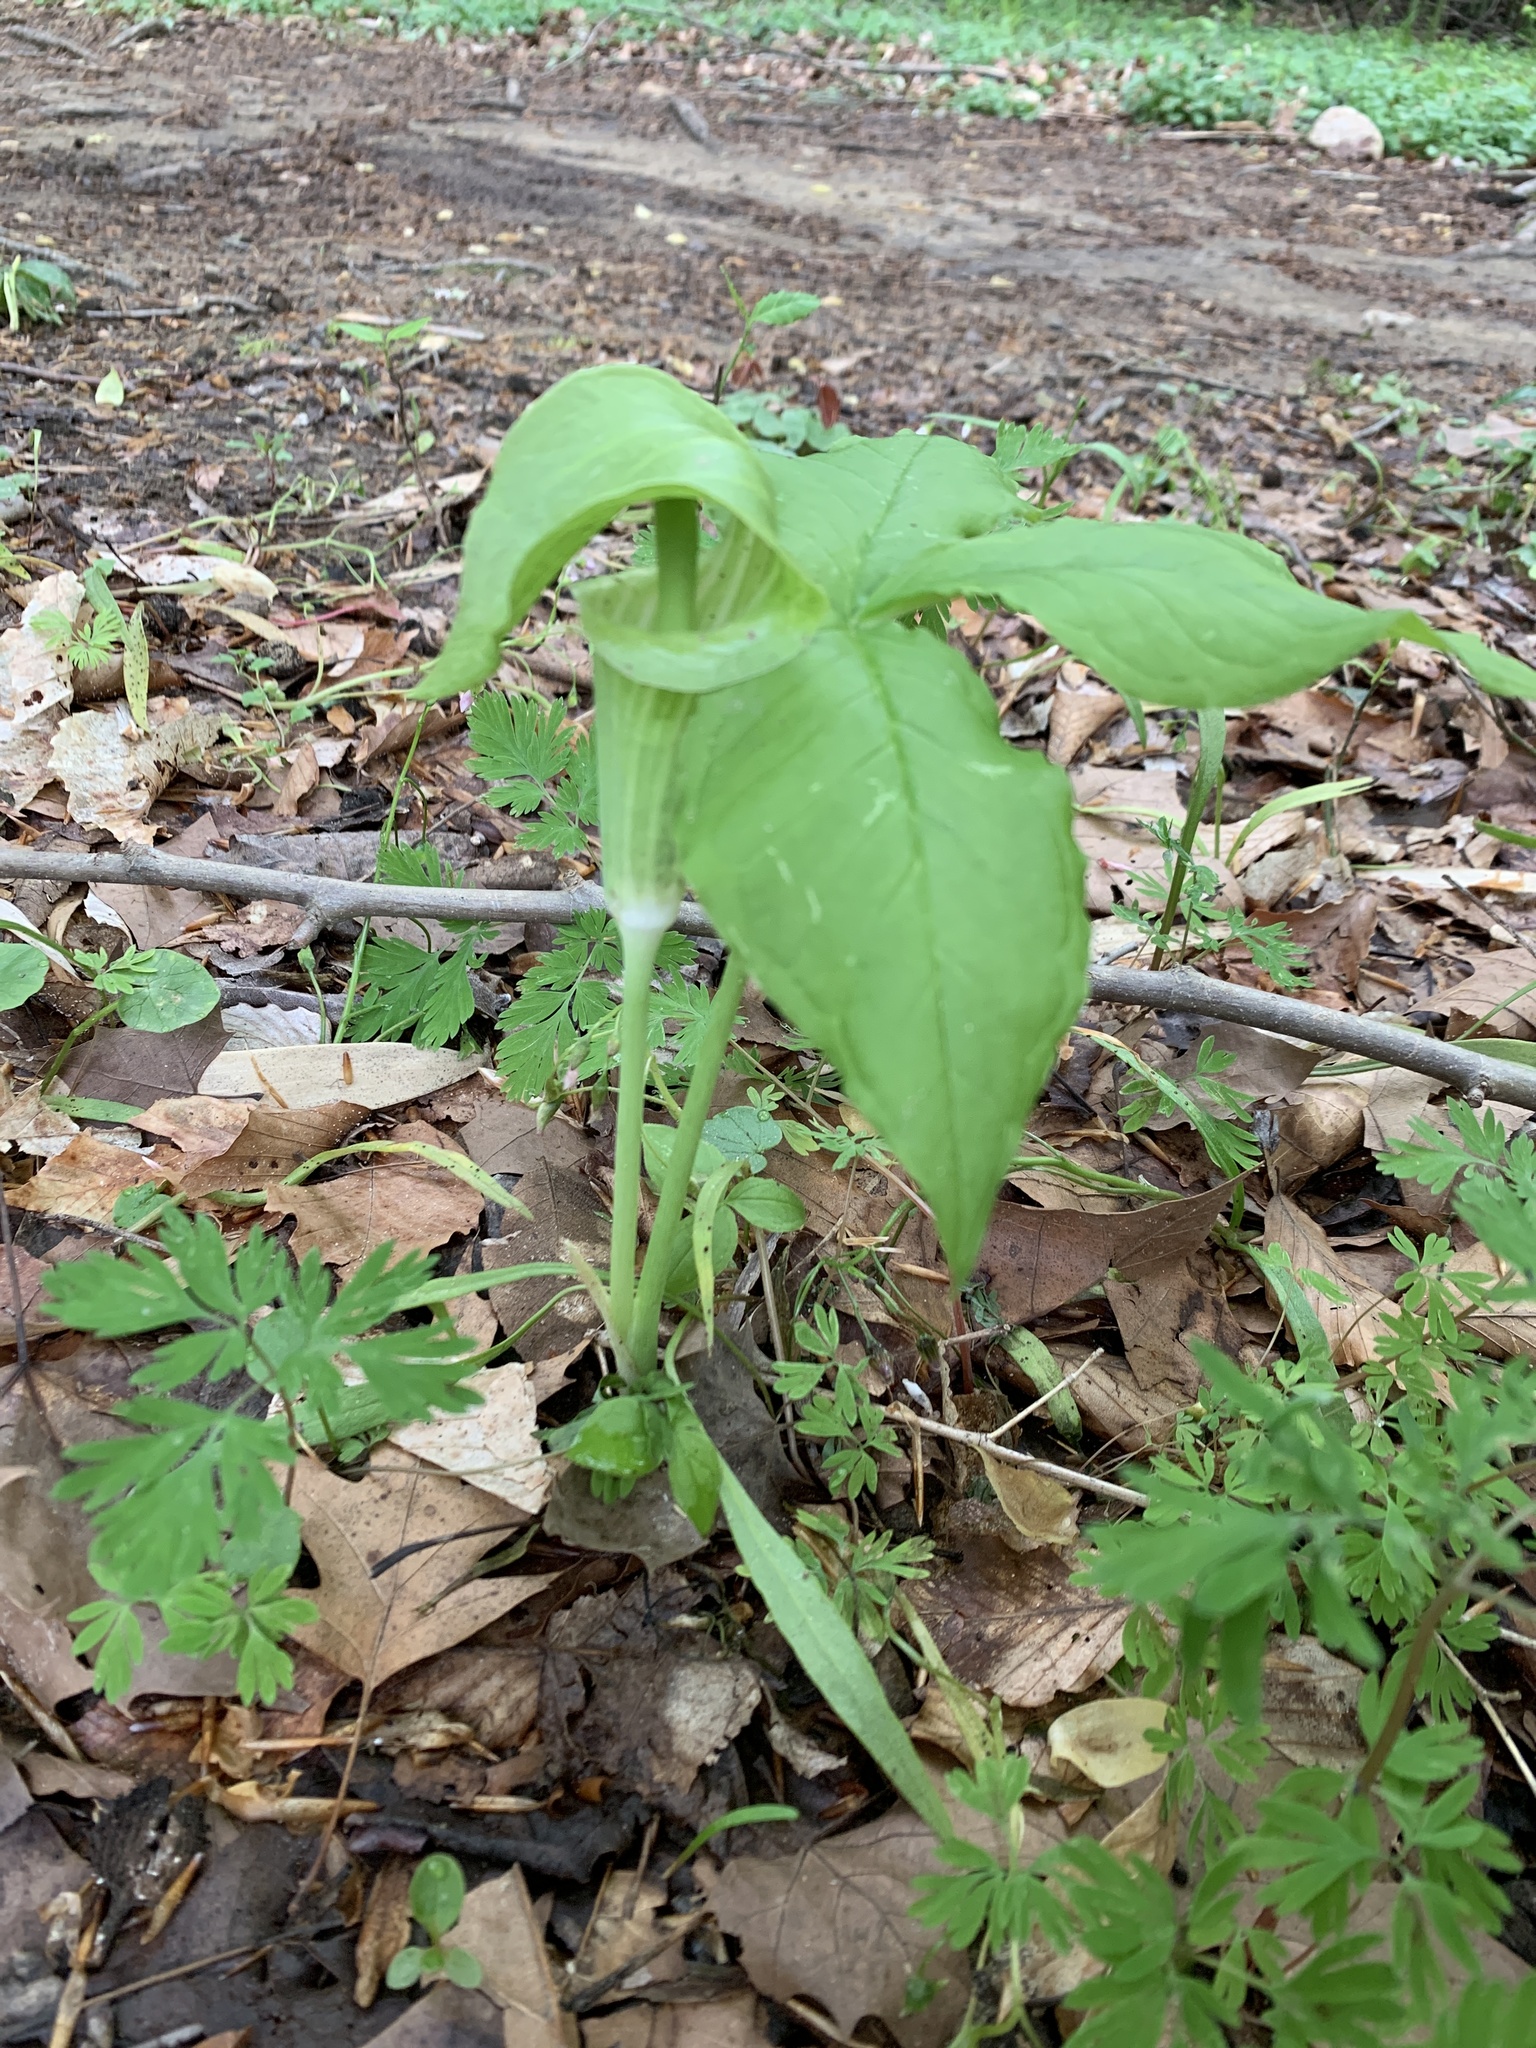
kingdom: Plantae
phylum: Tracheophyta
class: Liliopsida
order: Alismatales
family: Araceae
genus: Arisaema
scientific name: Arisaema triphyllum
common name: Jack-in-the-pulpit
